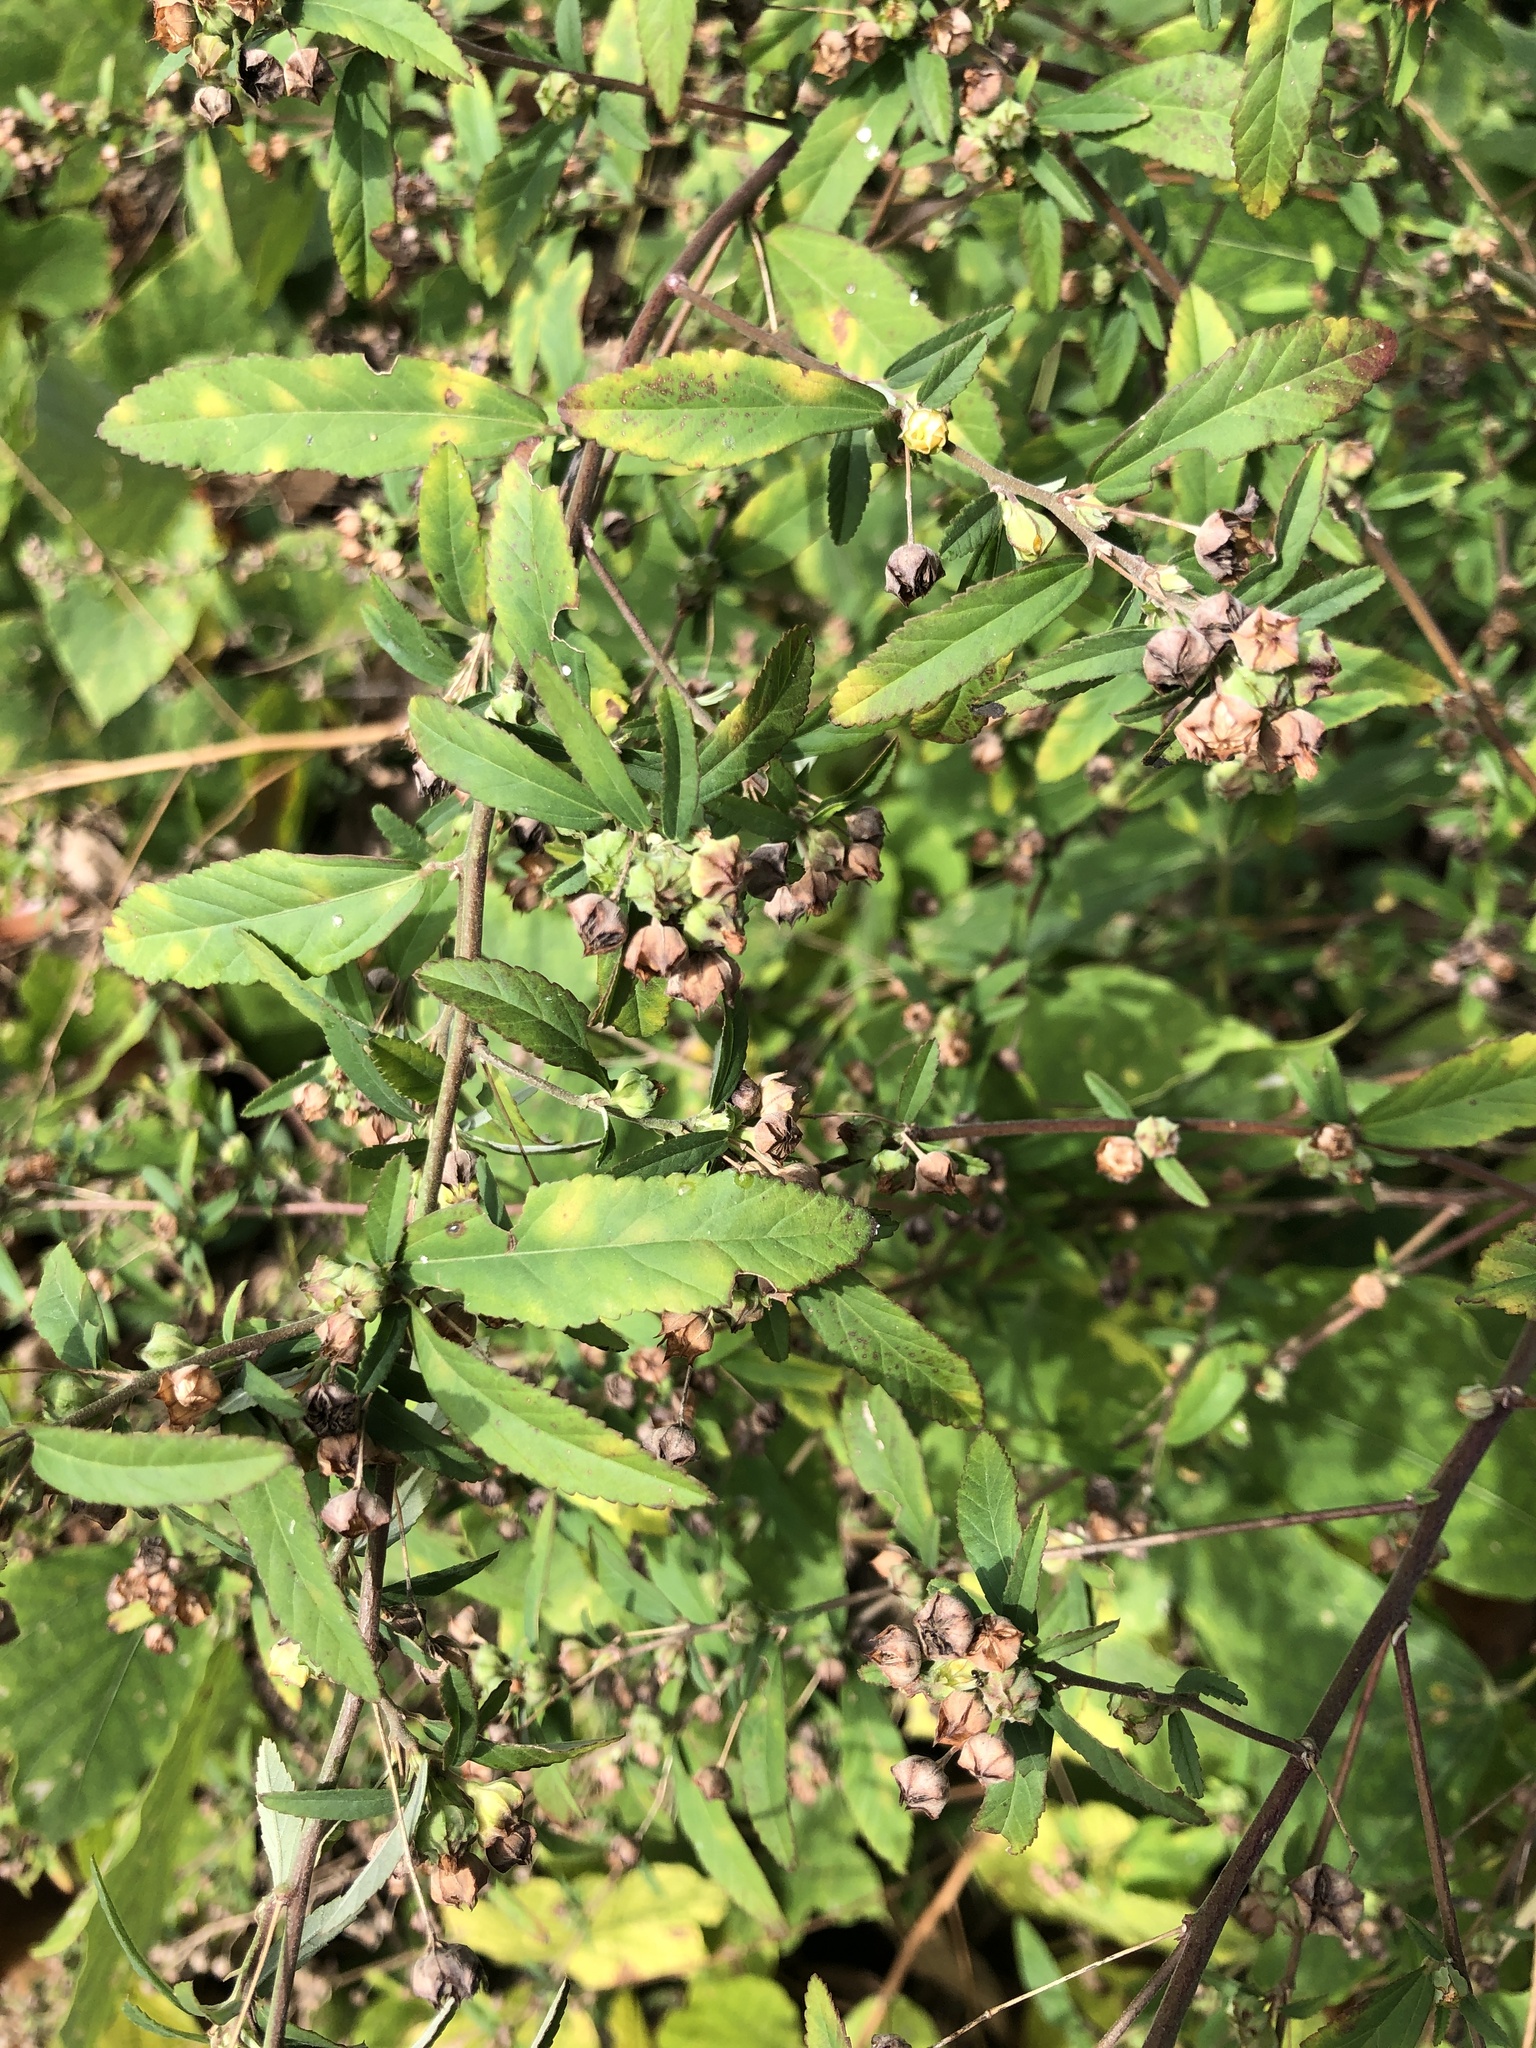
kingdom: Plantae
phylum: Tracheophyta
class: Magnoliopsida
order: Malvales
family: Malvaceae
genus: Sida
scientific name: Sida rhombifolia
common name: Queensland-hemp
